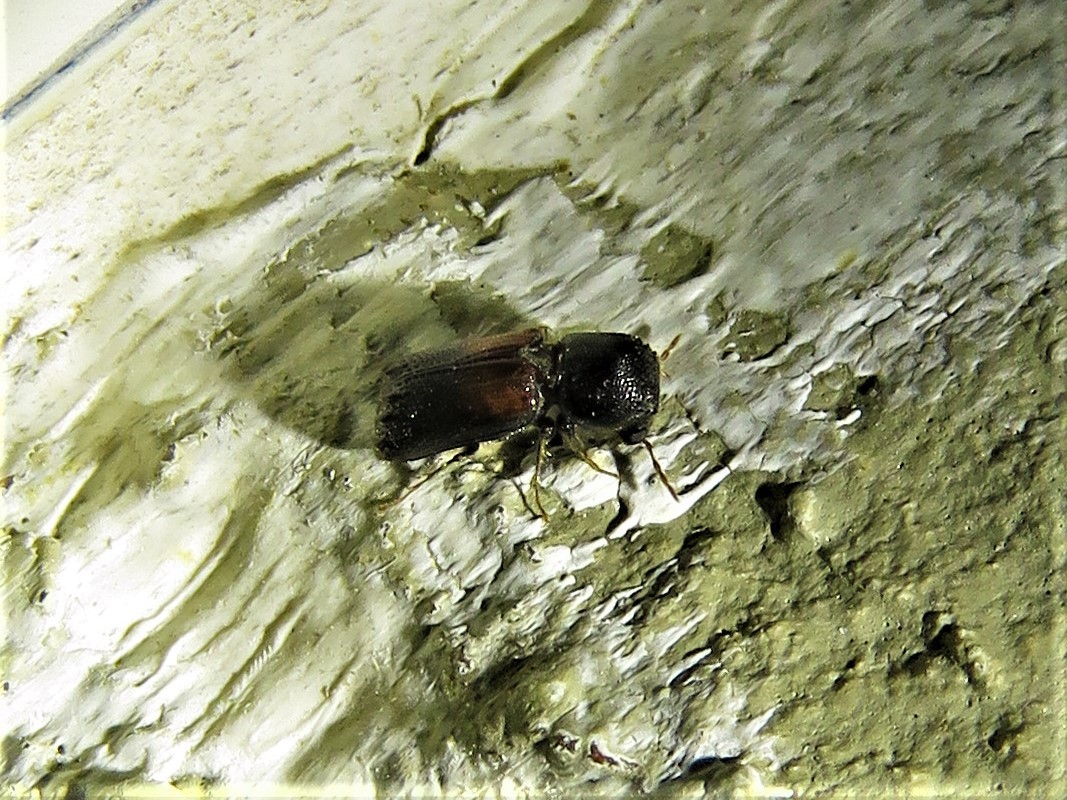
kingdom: Animalia
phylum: Arthropoda
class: Insecta
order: Coleoptera
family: Bostrichidae
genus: Xylobiops
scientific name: Xylobiops basilaris
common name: Red-shouldered bostrichid
